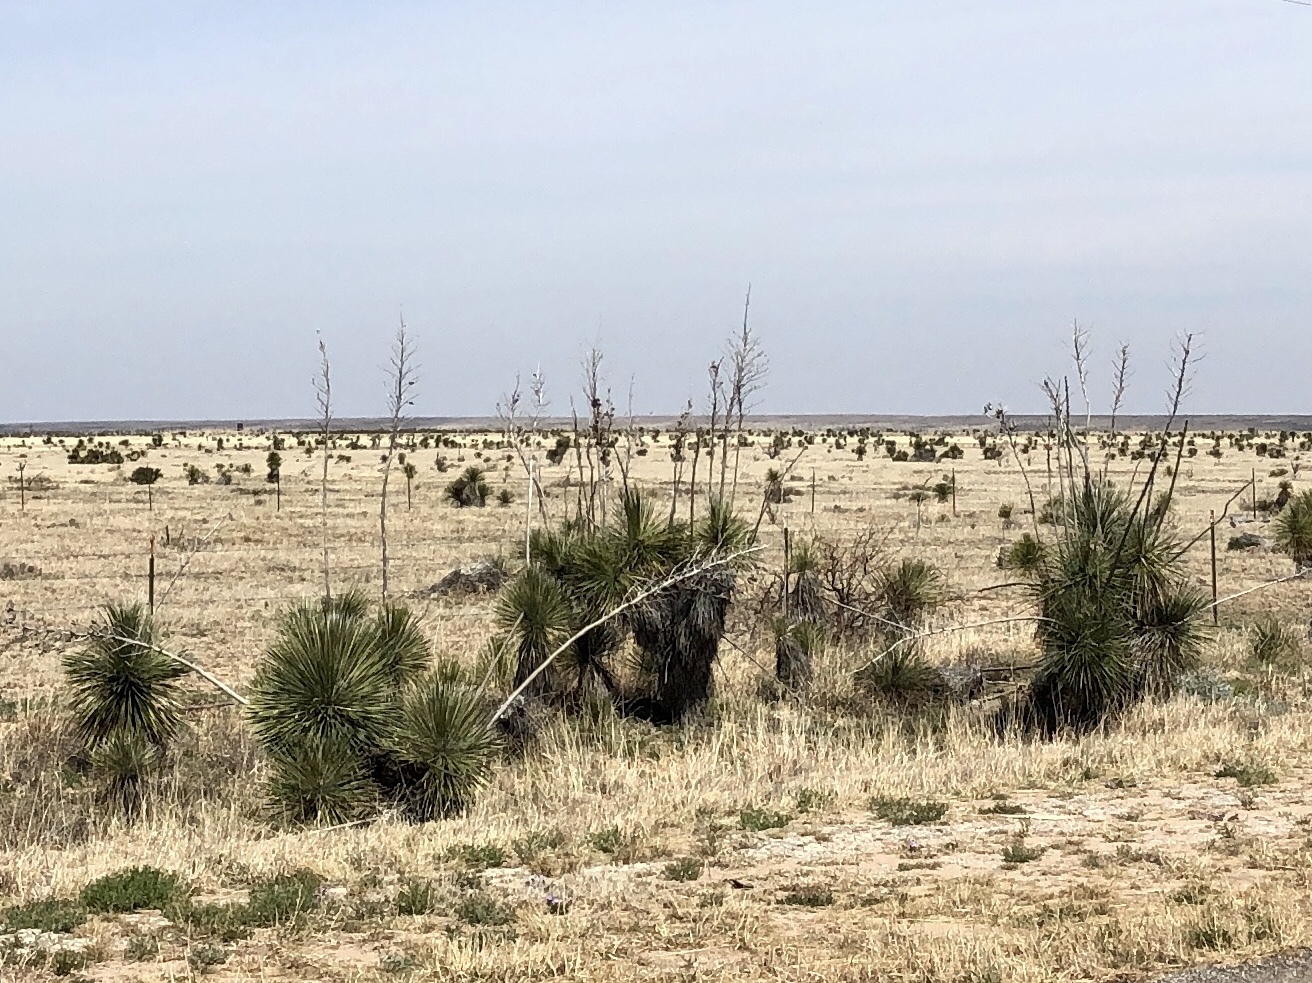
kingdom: Plantae
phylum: Tracheophyta
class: Liliopsida
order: Asparagales
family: Asparagaceae
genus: Yucca
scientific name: Yucca elata
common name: Palmella
